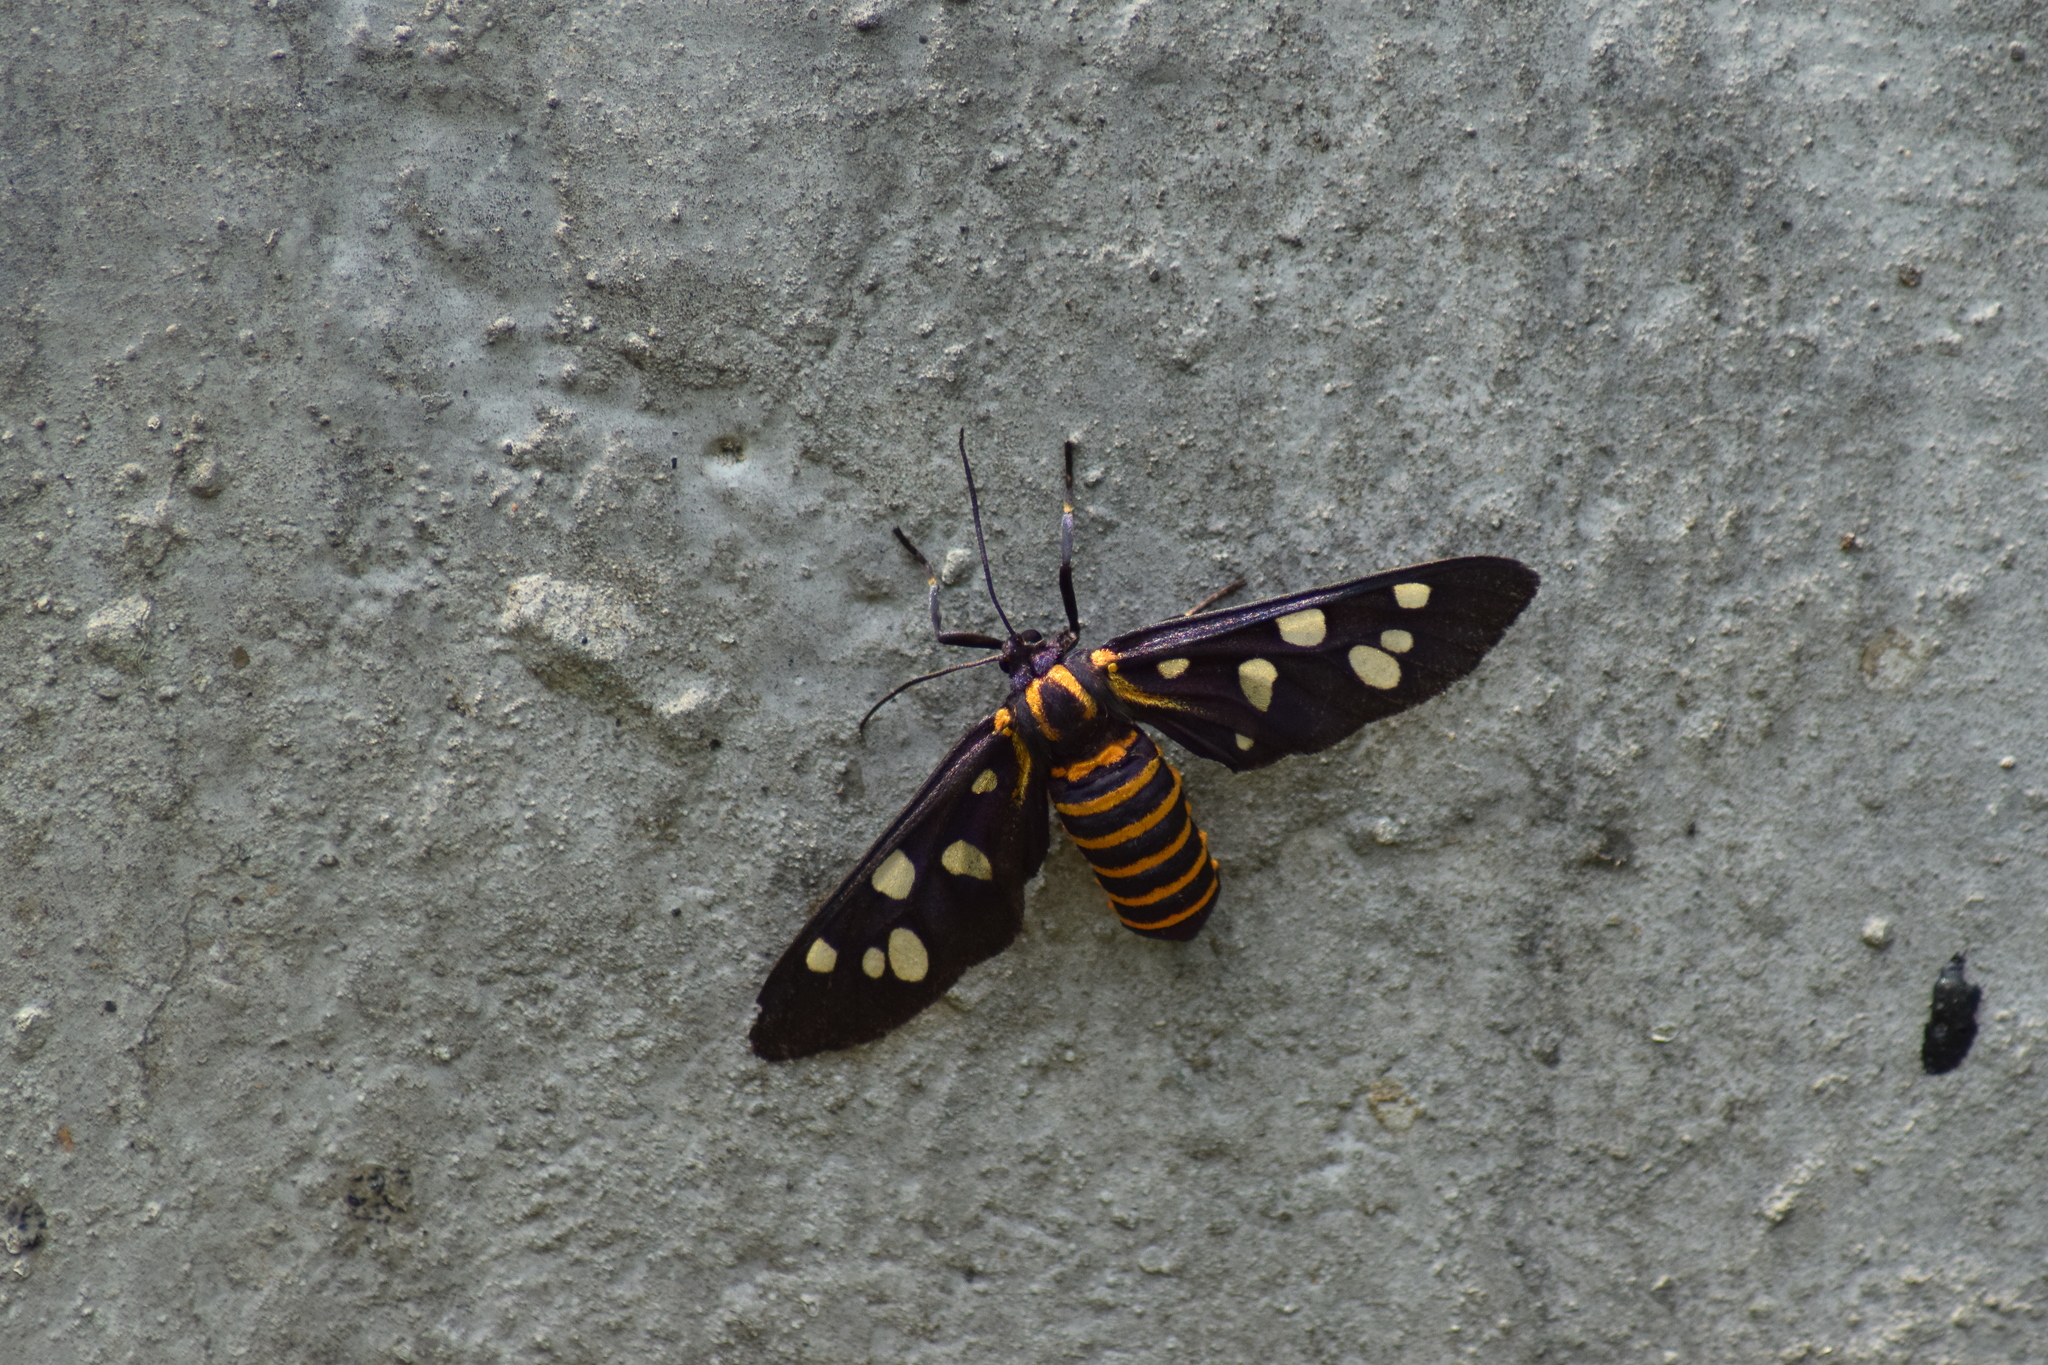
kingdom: Animalia
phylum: Arthropoda
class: Insecta
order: Lepidoptera
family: Erebidae
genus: Amata
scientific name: Amata passalis
